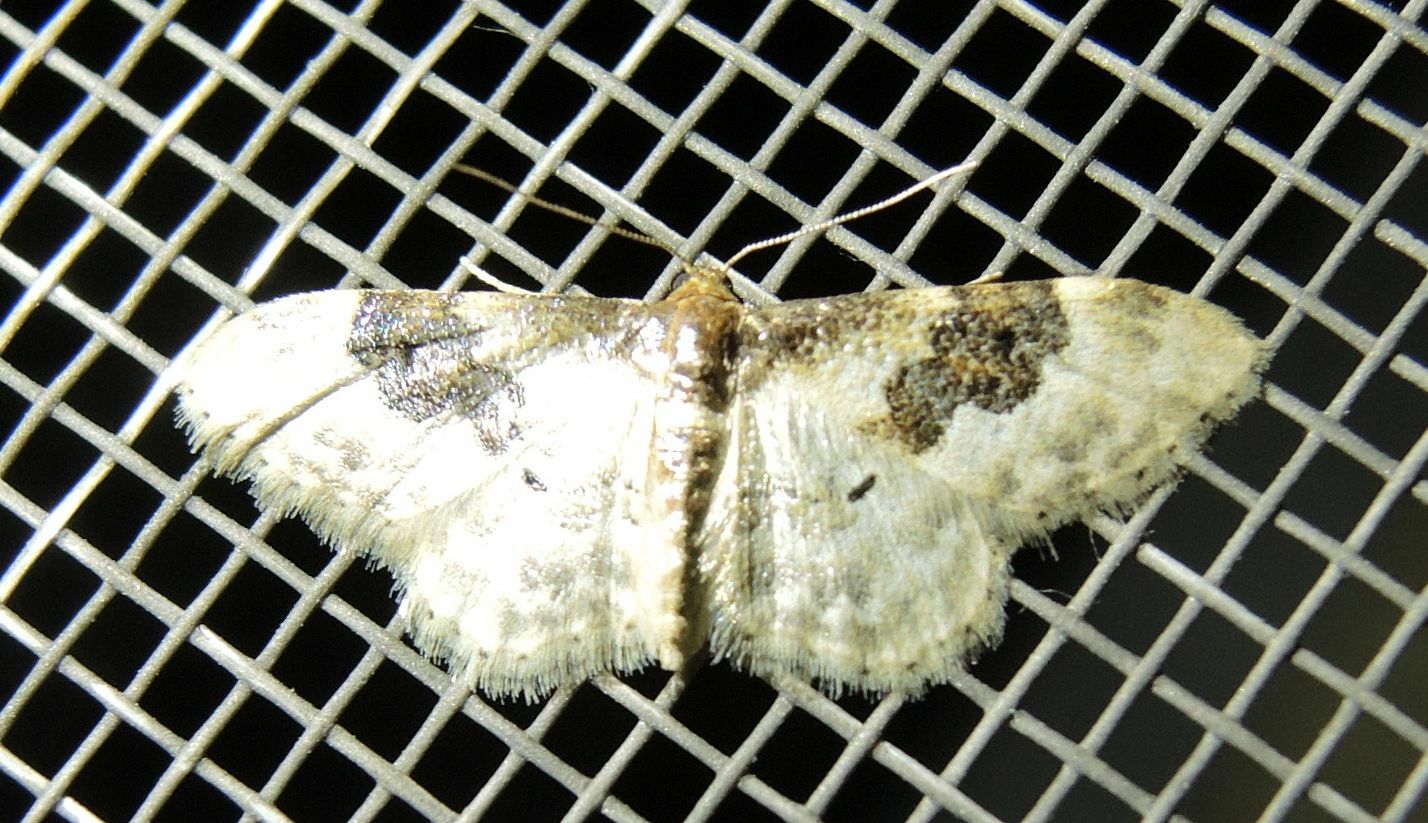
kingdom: Animalia
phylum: Arthropoda
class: Insecta
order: Lepidoptera
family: Geometridae
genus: Idaea
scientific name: Idaea rusticata
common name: Least carpet
